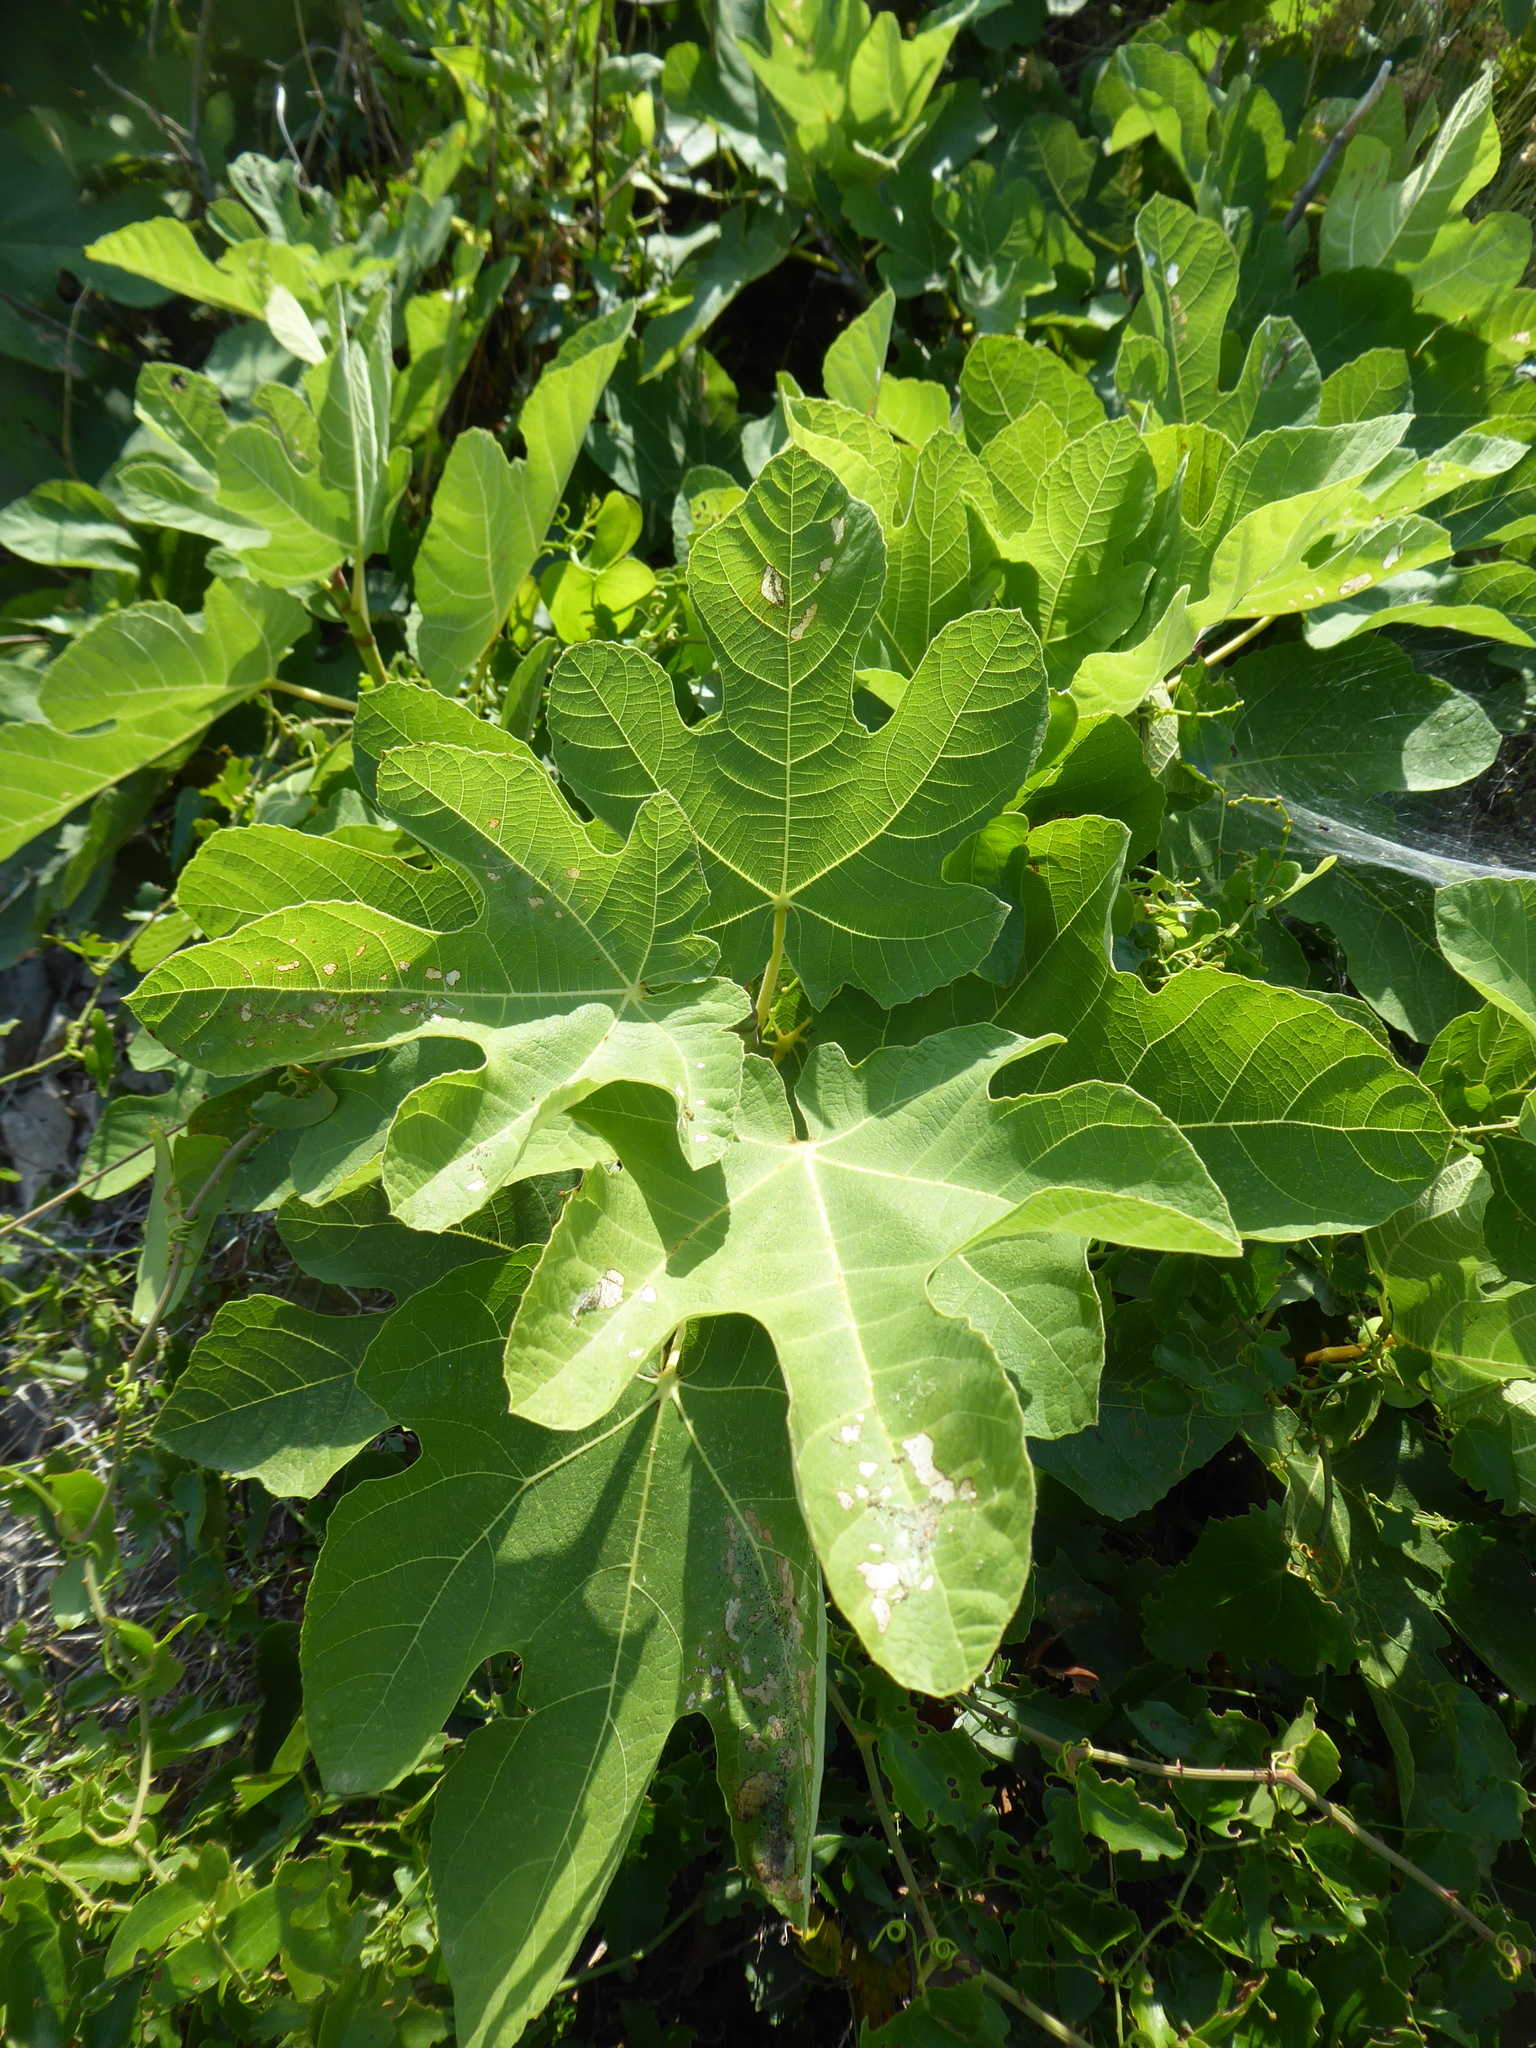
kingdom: Plantae
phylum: Tracheophyta
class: Magnoliopsida
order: Rosales
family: Moraceae
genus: Ficus
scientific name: Ficus carica
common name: Fig
